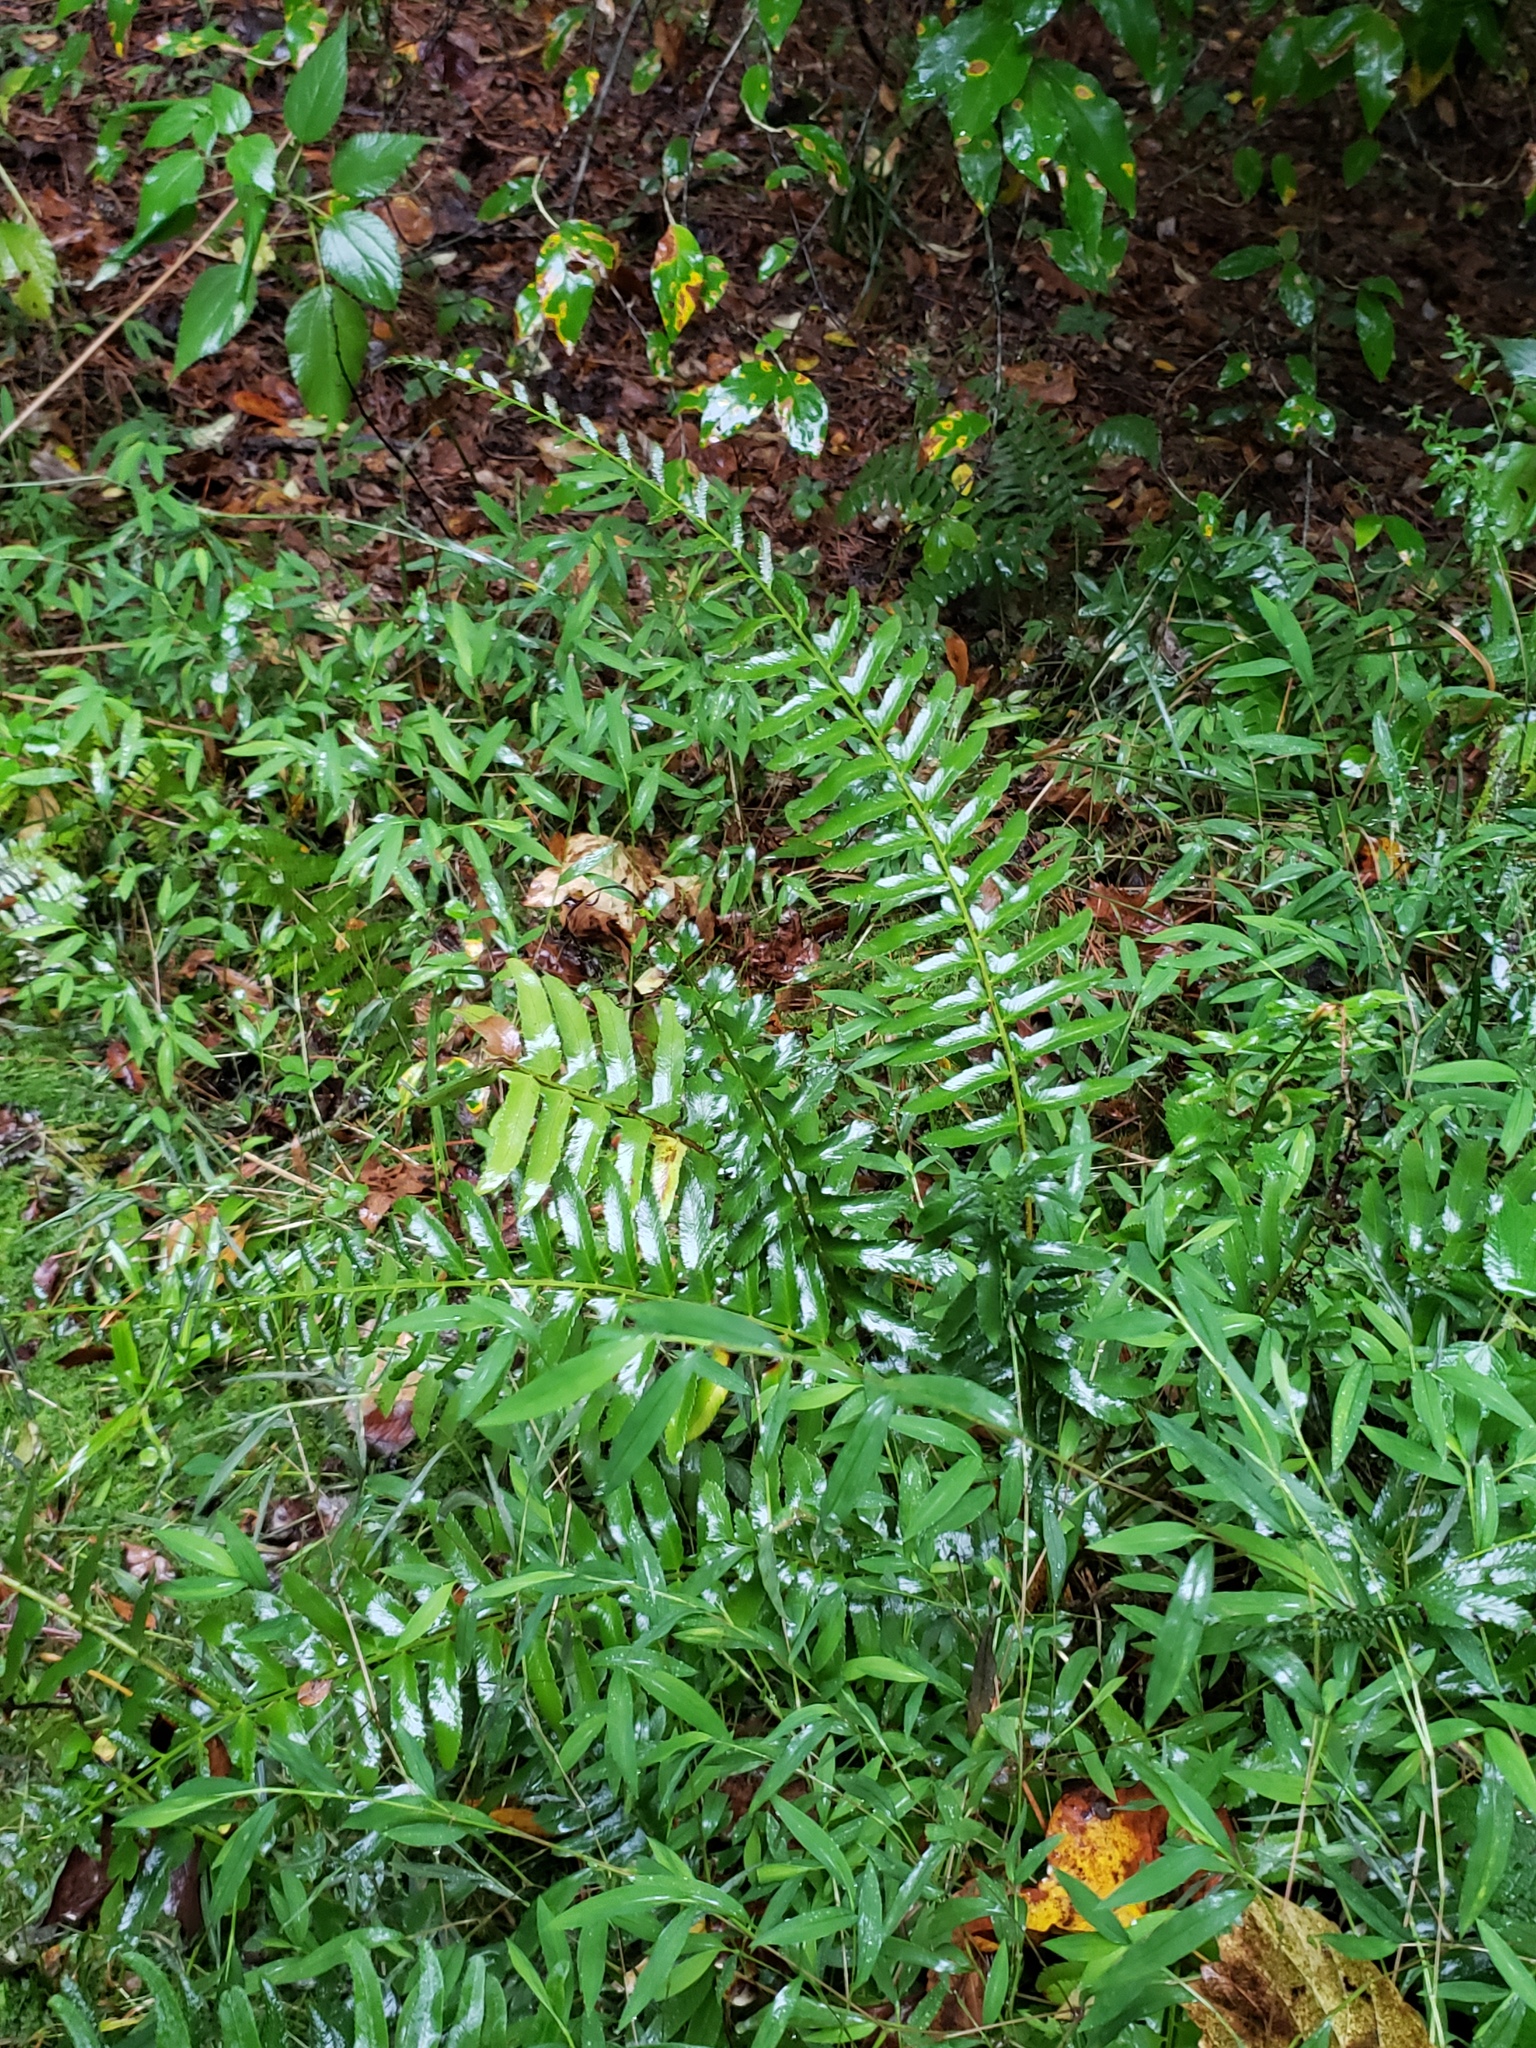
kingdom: Plantae
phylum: Tracheophyta
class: Polypodiopsida
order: Polypodiales
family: Dryopteridaceae
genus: Polystichum
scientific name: Polystichum acrostichoides
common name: Christmas fern
